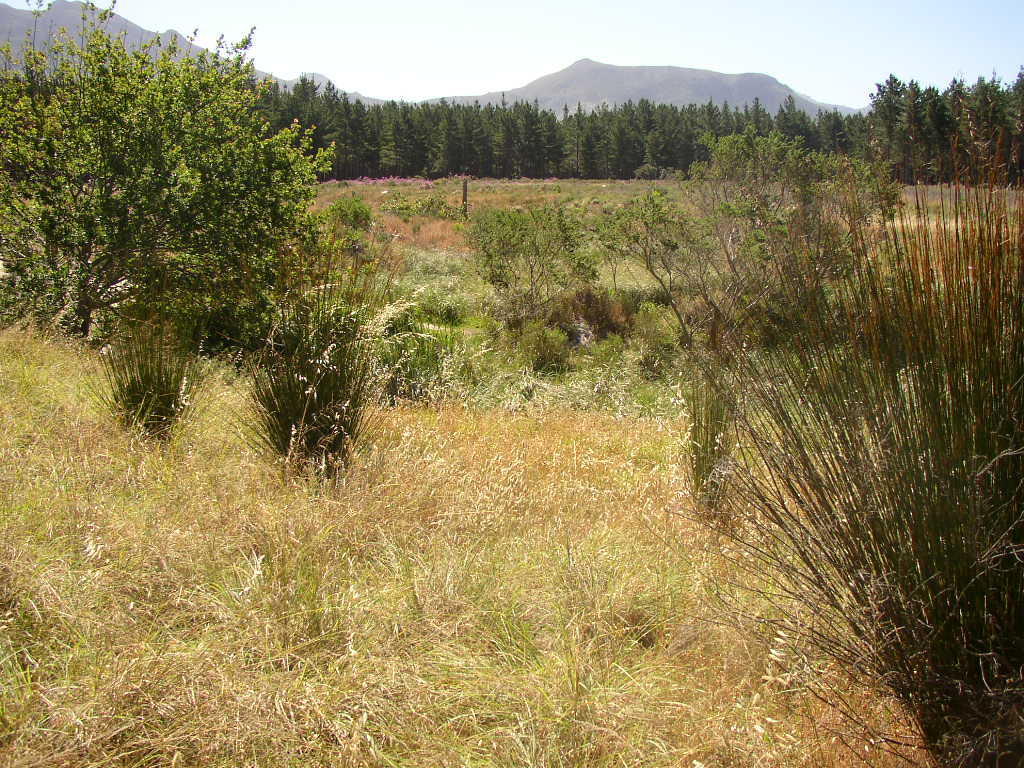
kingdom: Plantae
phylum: Tracheophyta
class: Liliopsida
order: Poales
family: Restionaceae
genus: Thamnochortus
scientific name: Thamnochortus insignis
